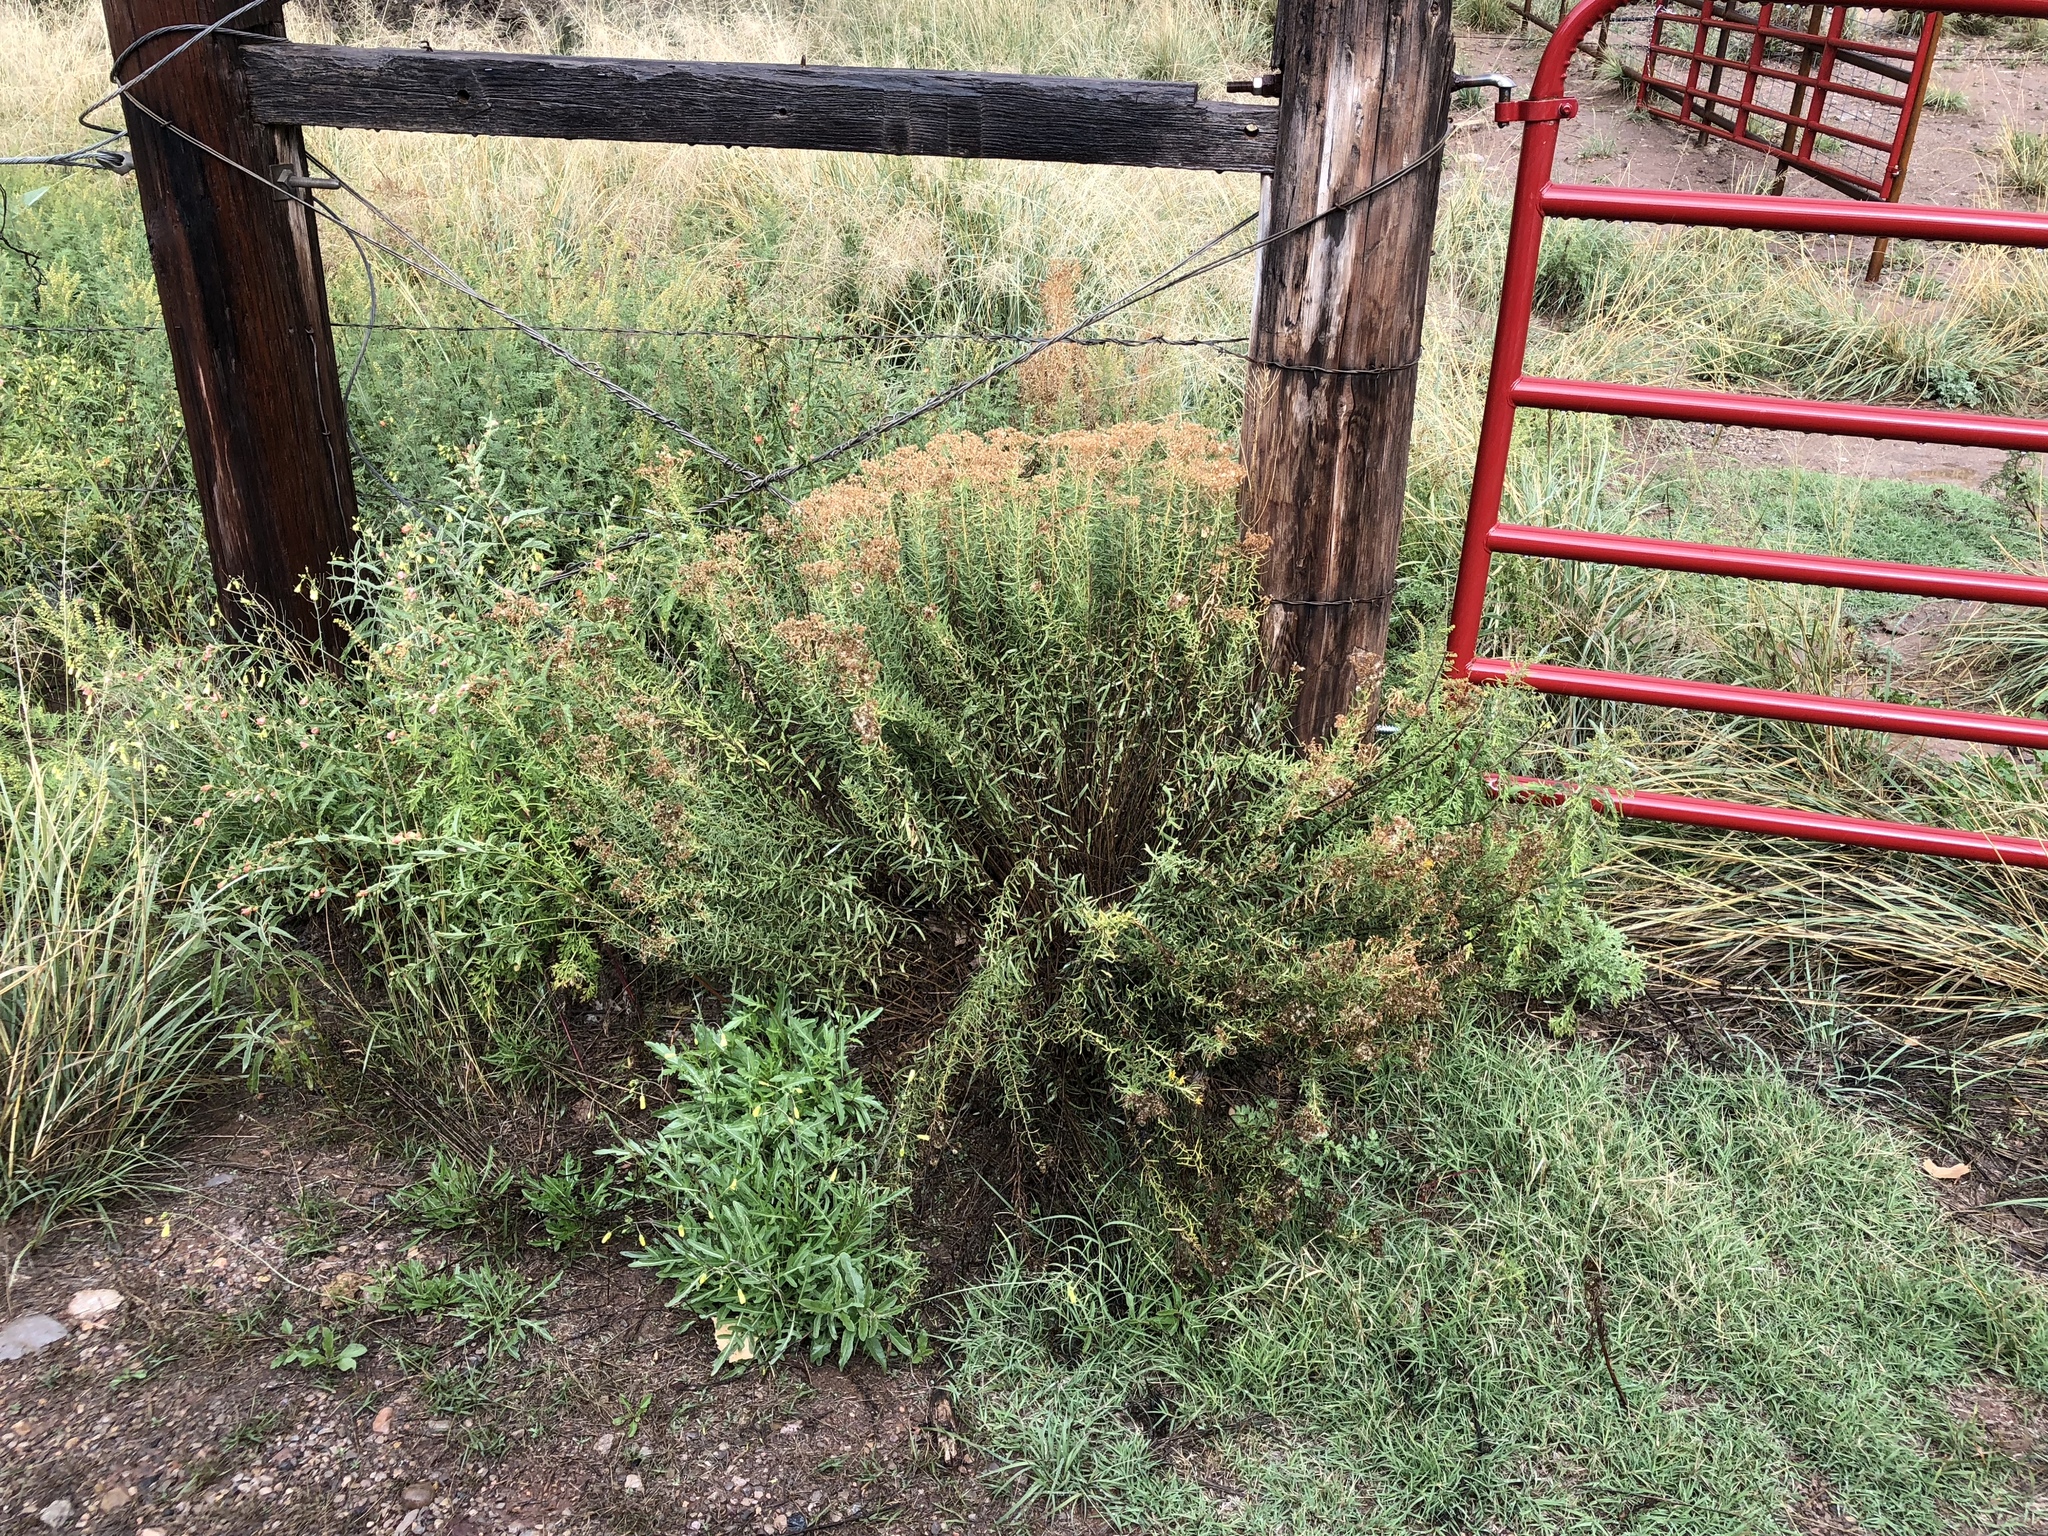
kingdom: Plantae
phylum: Tracheophyta
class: Magnoliopsida
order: Asterales
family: Asteraceae
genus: Isocoma
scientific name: Isocoma pluriflora
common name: Southern jimmyweed
